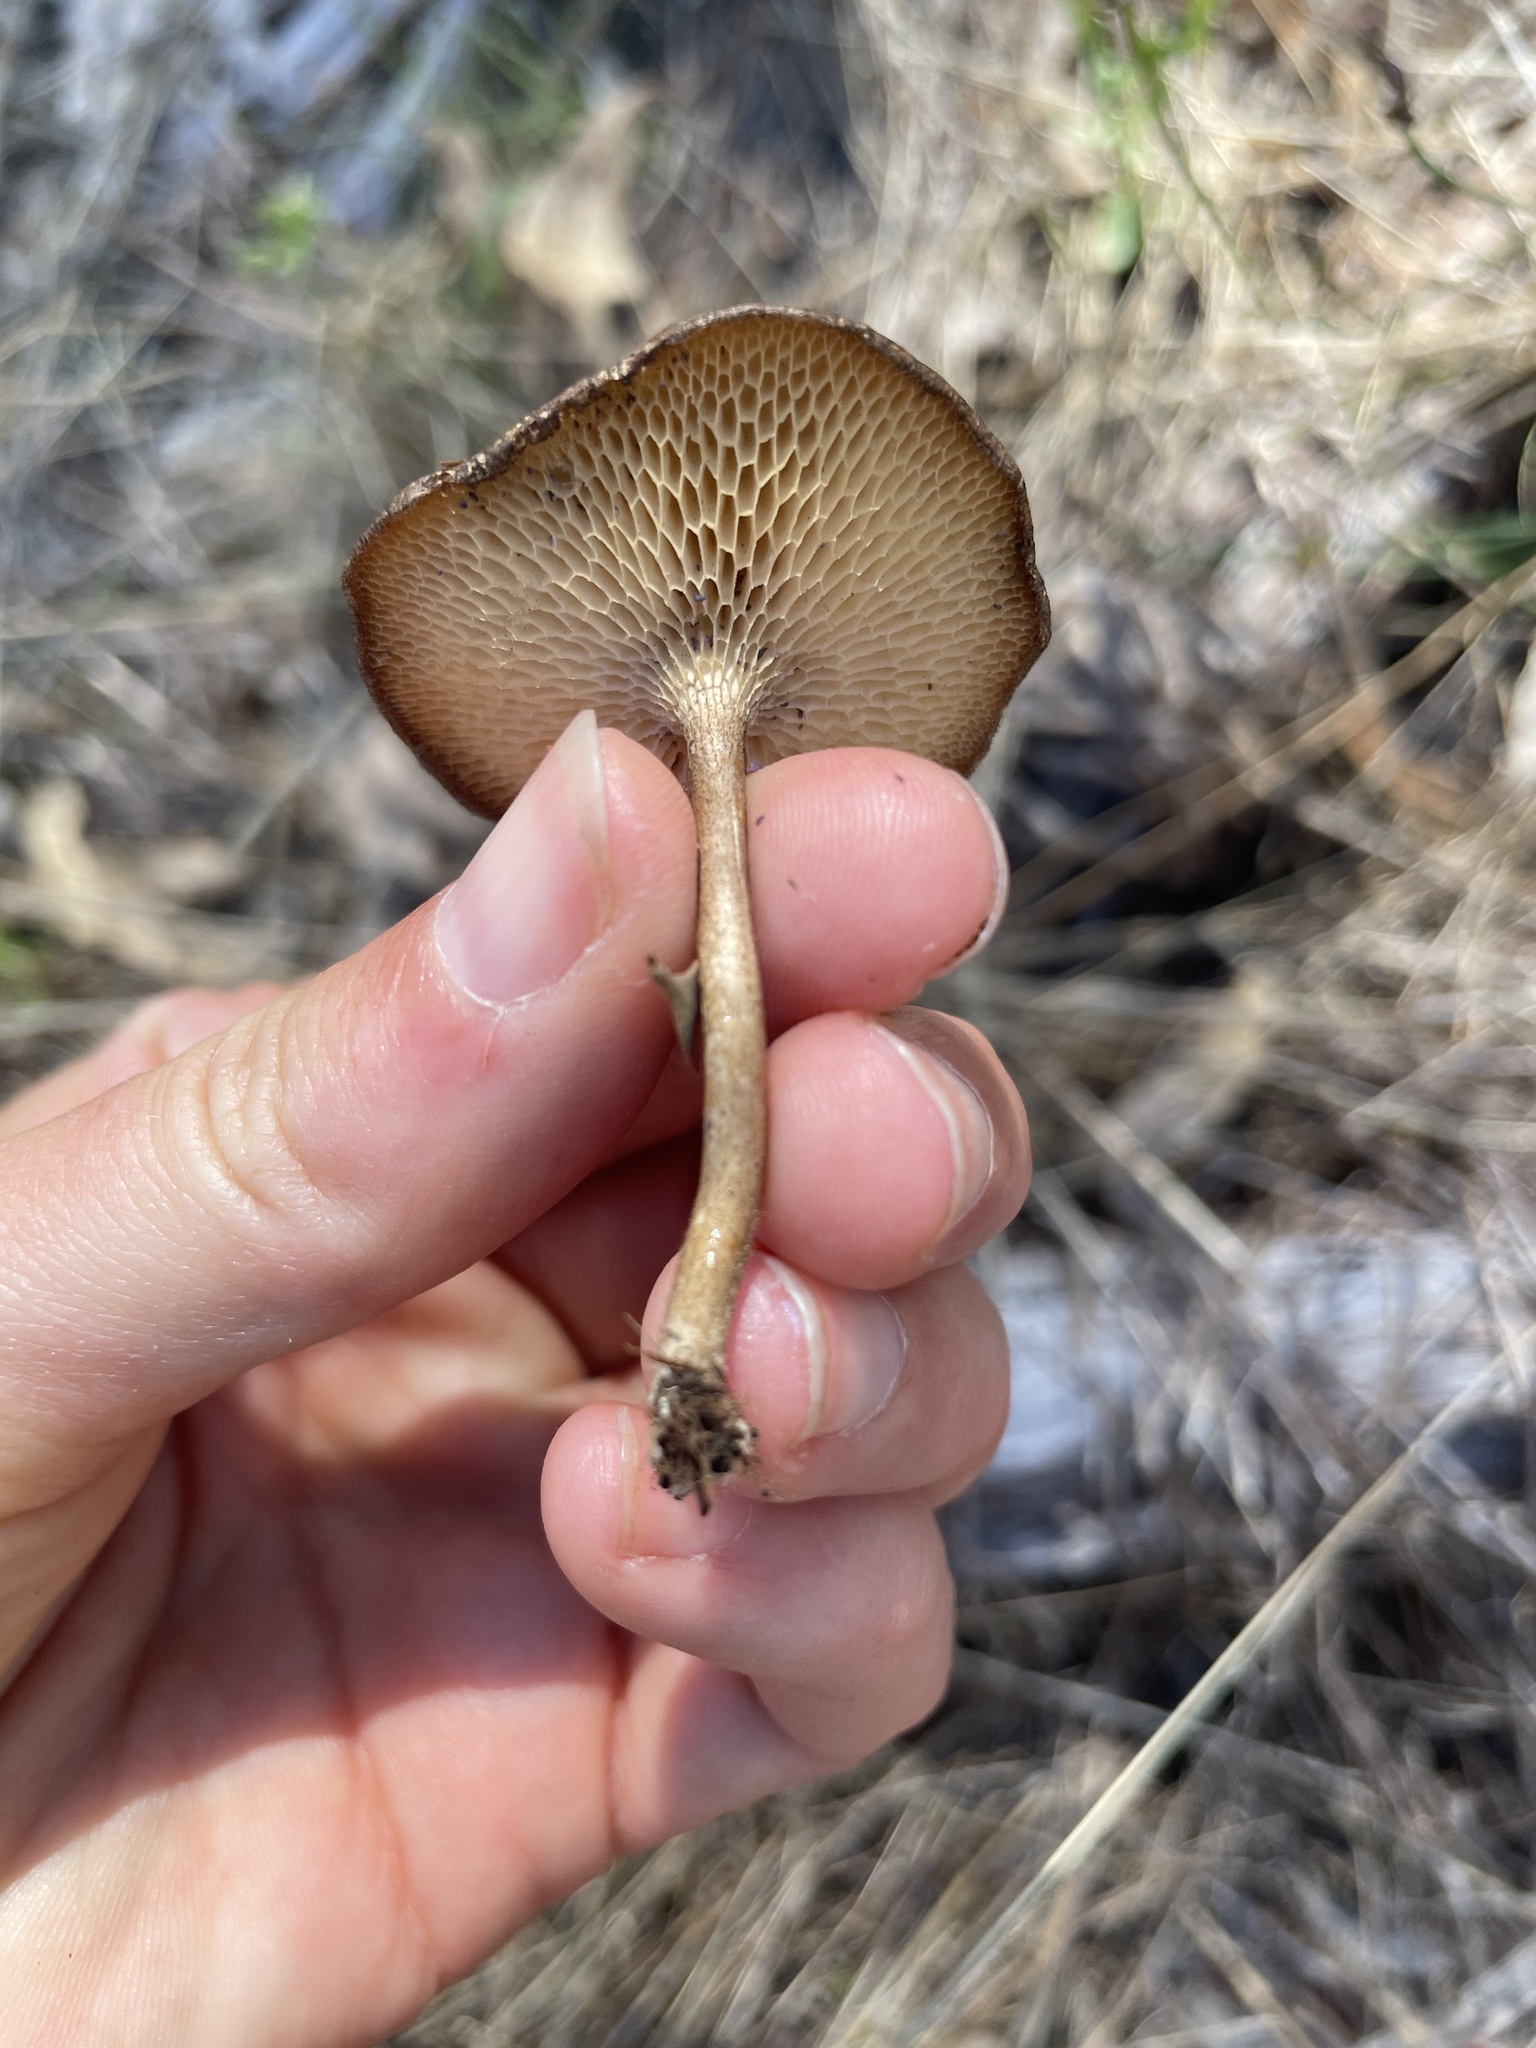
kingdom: Fungi
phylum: Basidiomycota
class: Agaricomycetes
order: Polyporales
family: Polyporaceae
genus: Lentinus
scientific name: Lentinus arcularius
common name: Spring polypore
